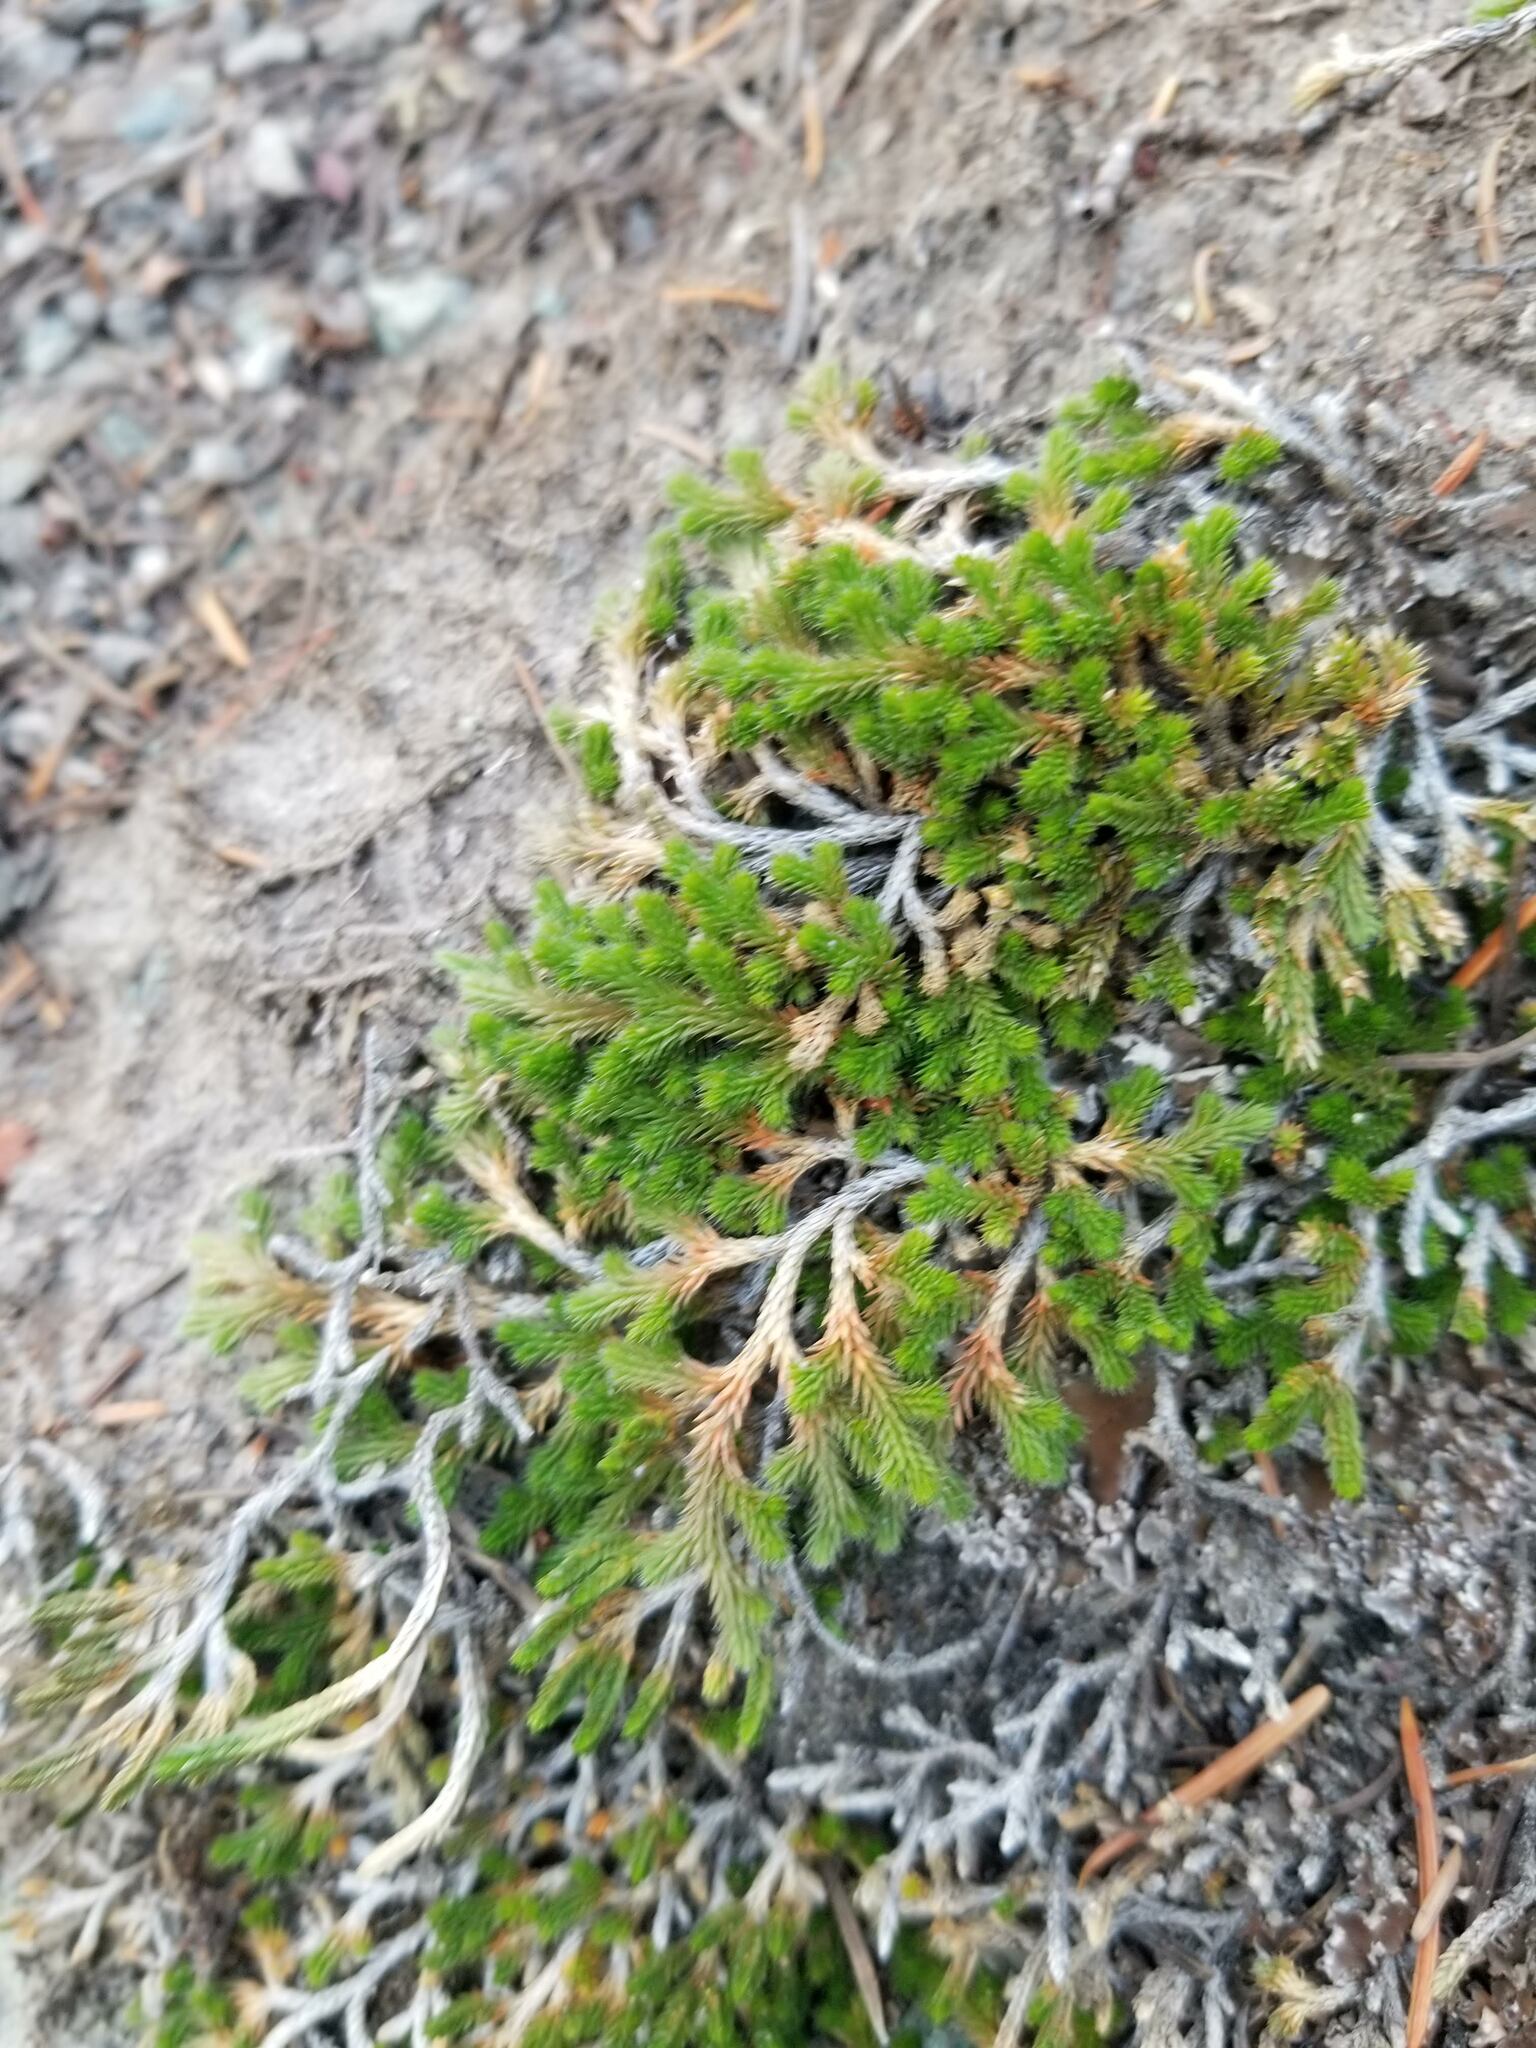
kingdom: Plantae
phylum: Tracheophyta
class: Lycopodiopsida
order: Selaginellales
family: Selaginellaceae
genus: Selaginella
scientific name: Selaginella wallacei
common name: Wallace's selaginella
